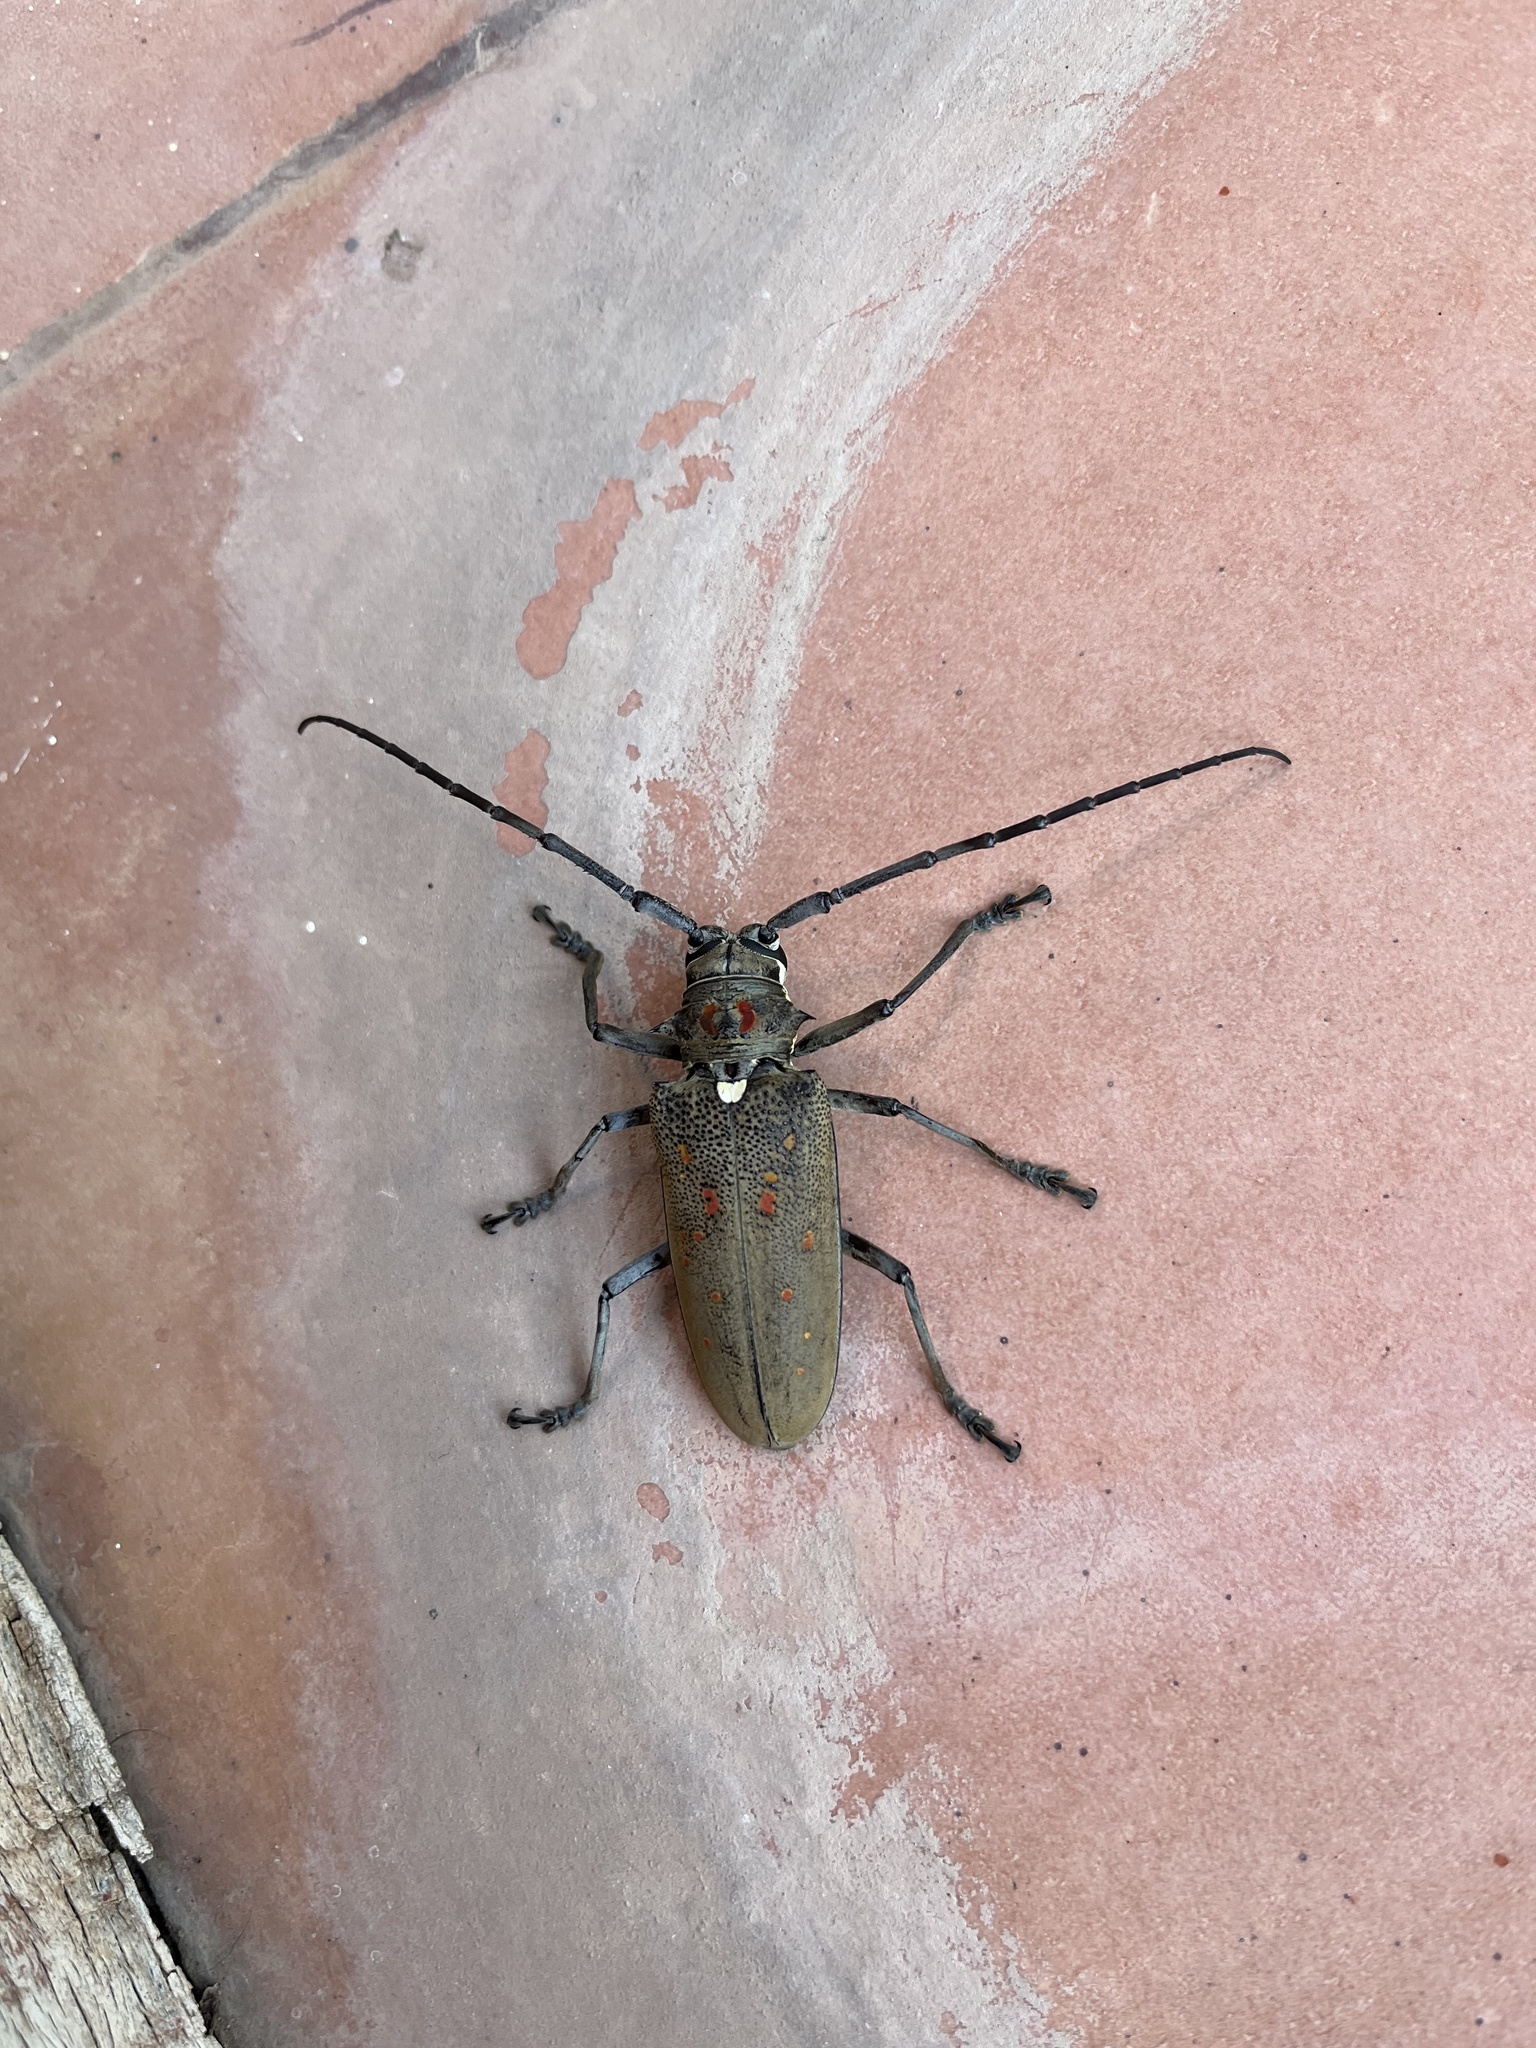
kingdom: Animalia
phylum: Arthropoda
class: Insecta
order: Coleoptera
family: Cerambycidae
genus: Batocera
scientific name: Batocera rufomaculata
